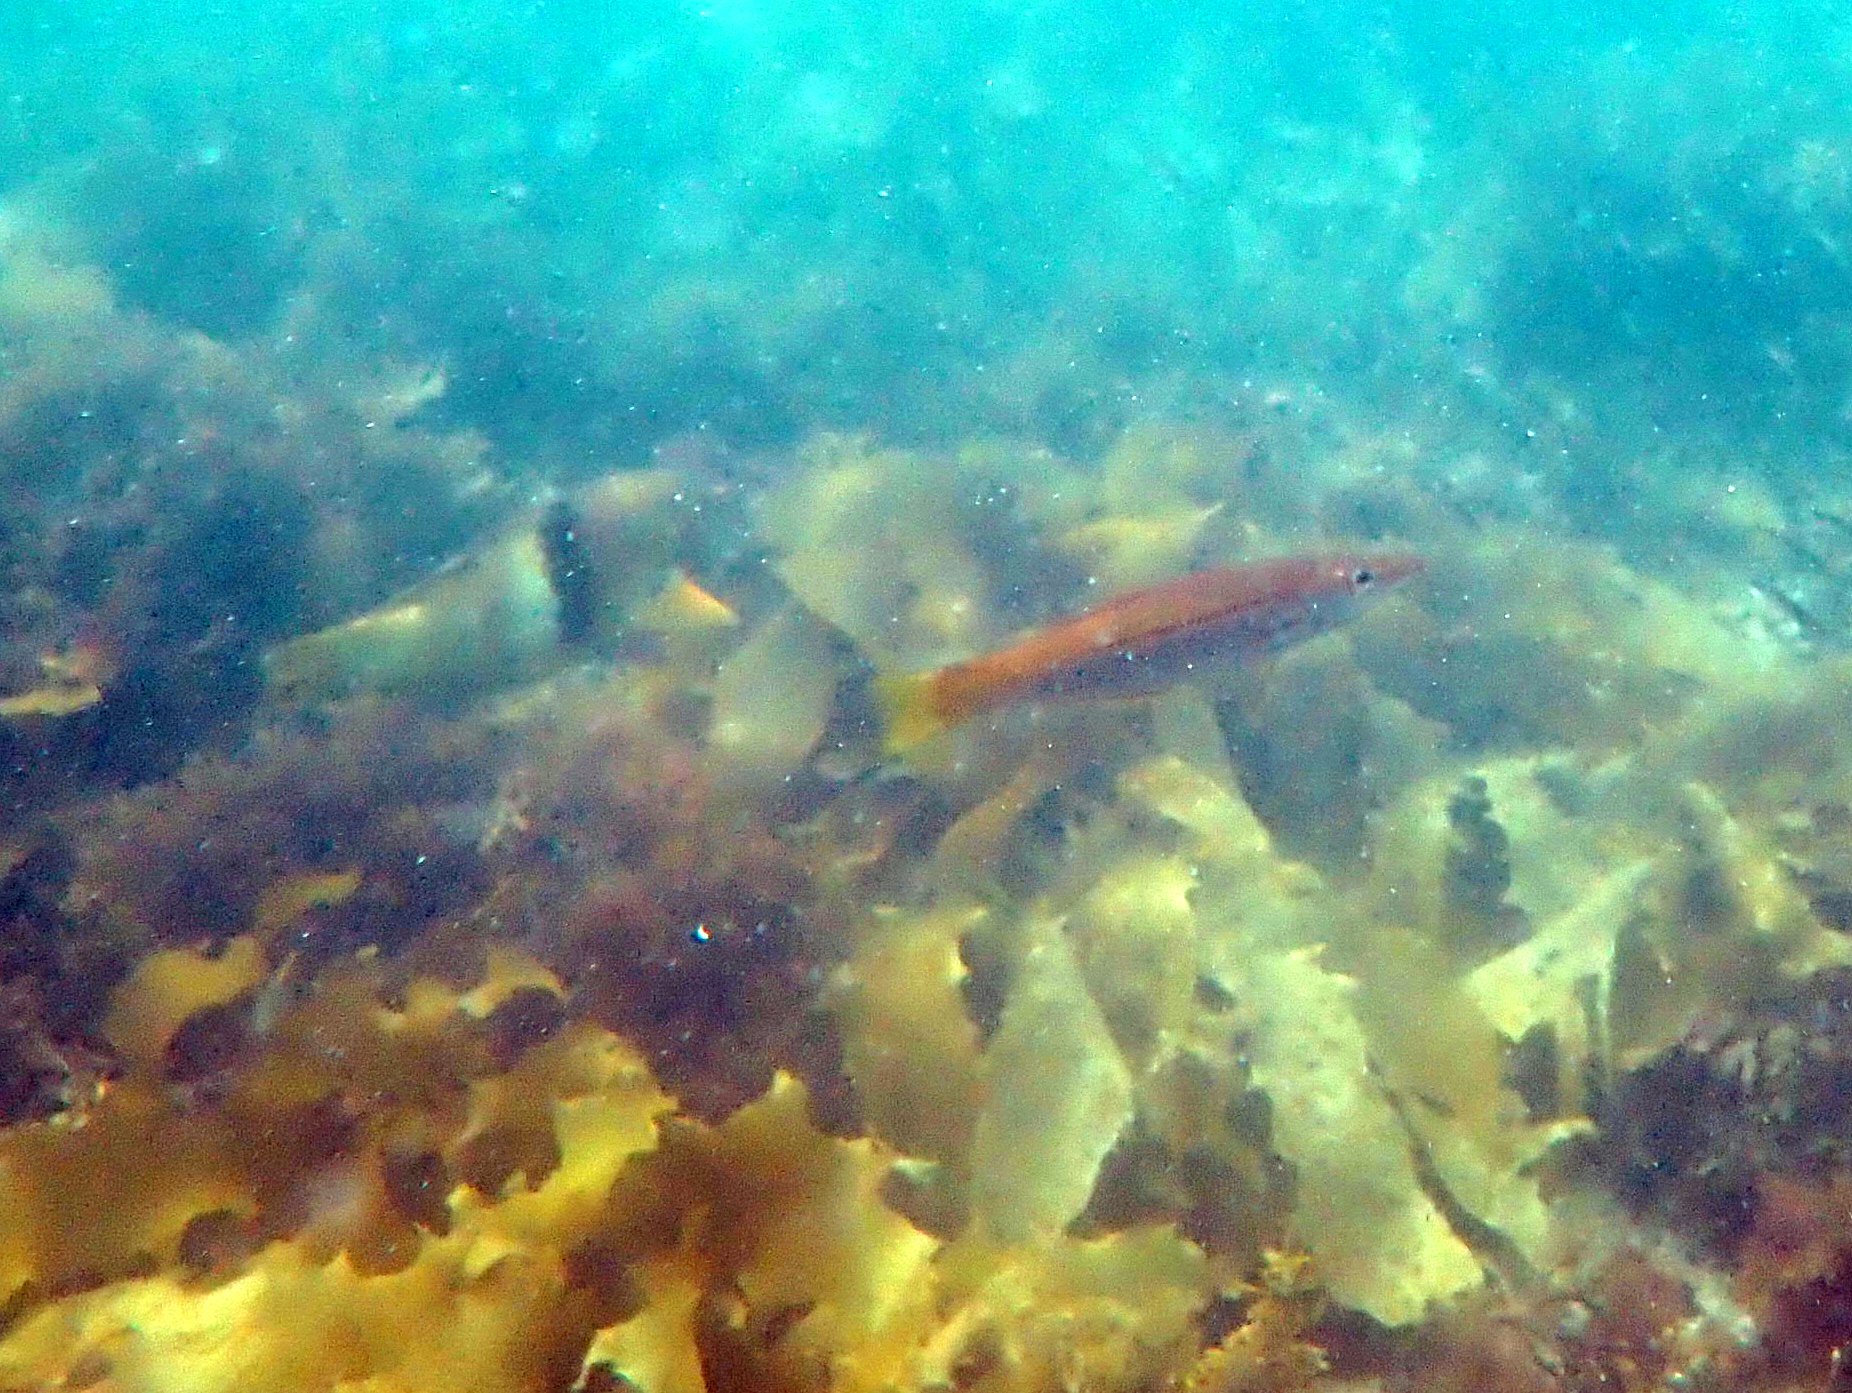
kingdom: Animalia
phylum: Chordata
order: Perciformes
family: Dinolestidae
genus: Dinolestes
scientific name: Dinolestes lewini
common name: Jack pike
